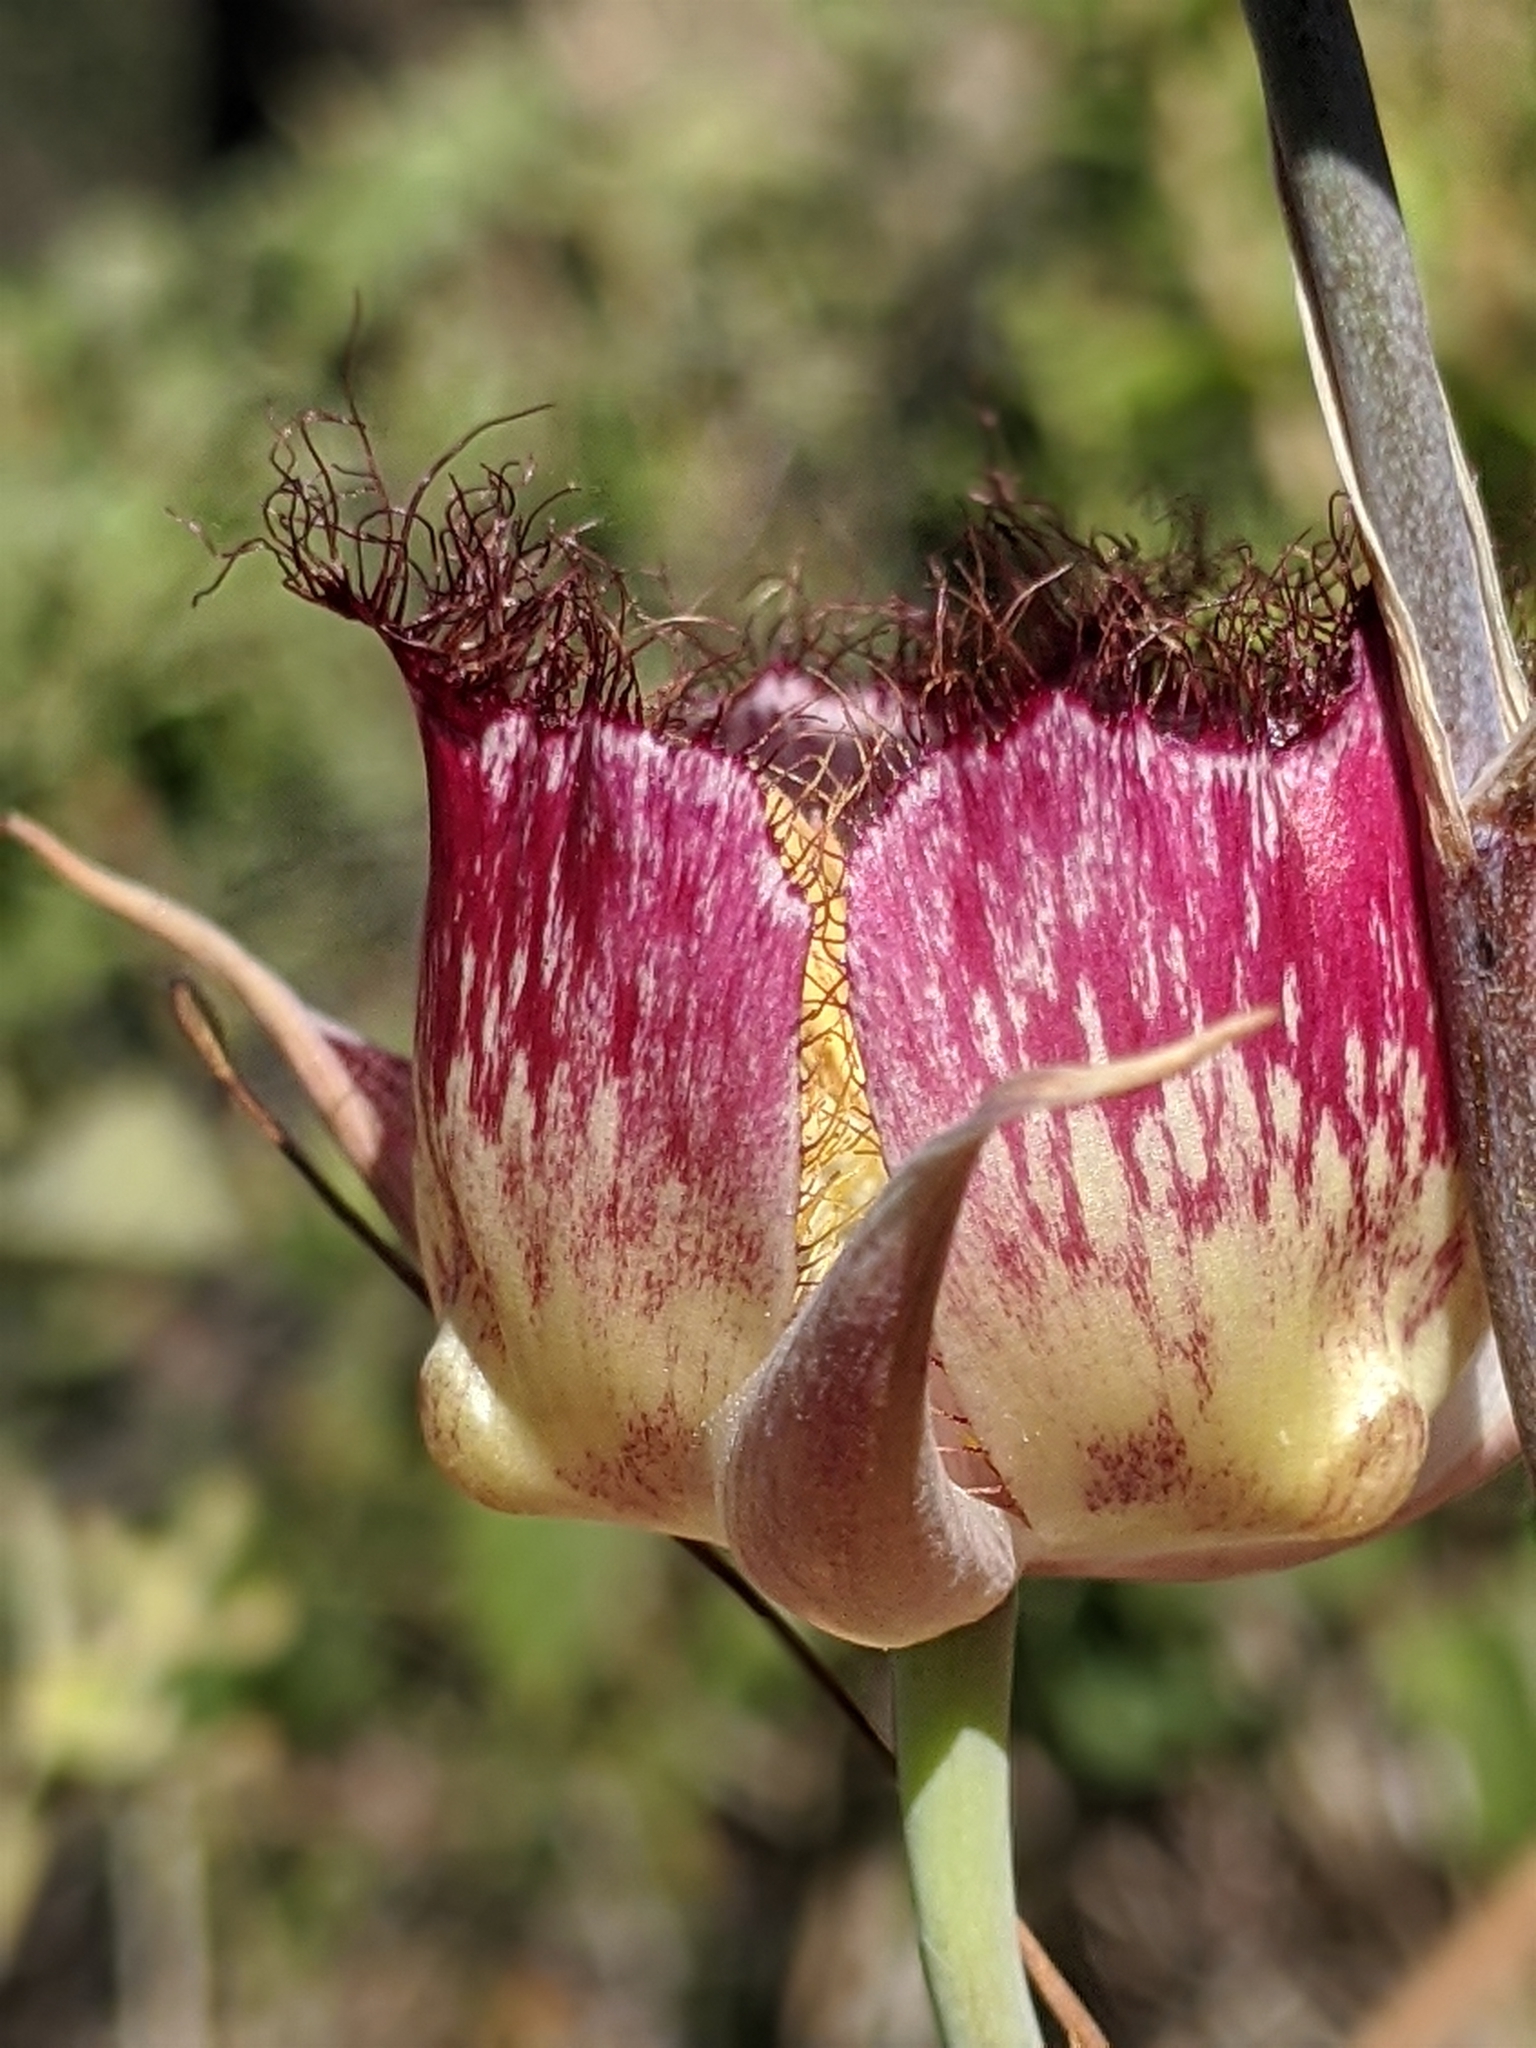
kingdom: Plantae
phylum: Tracheophyta
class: Liliopsida
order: Liliales
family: Liliaceae
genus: Calochortus
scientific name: Calochortus fimbriatus
